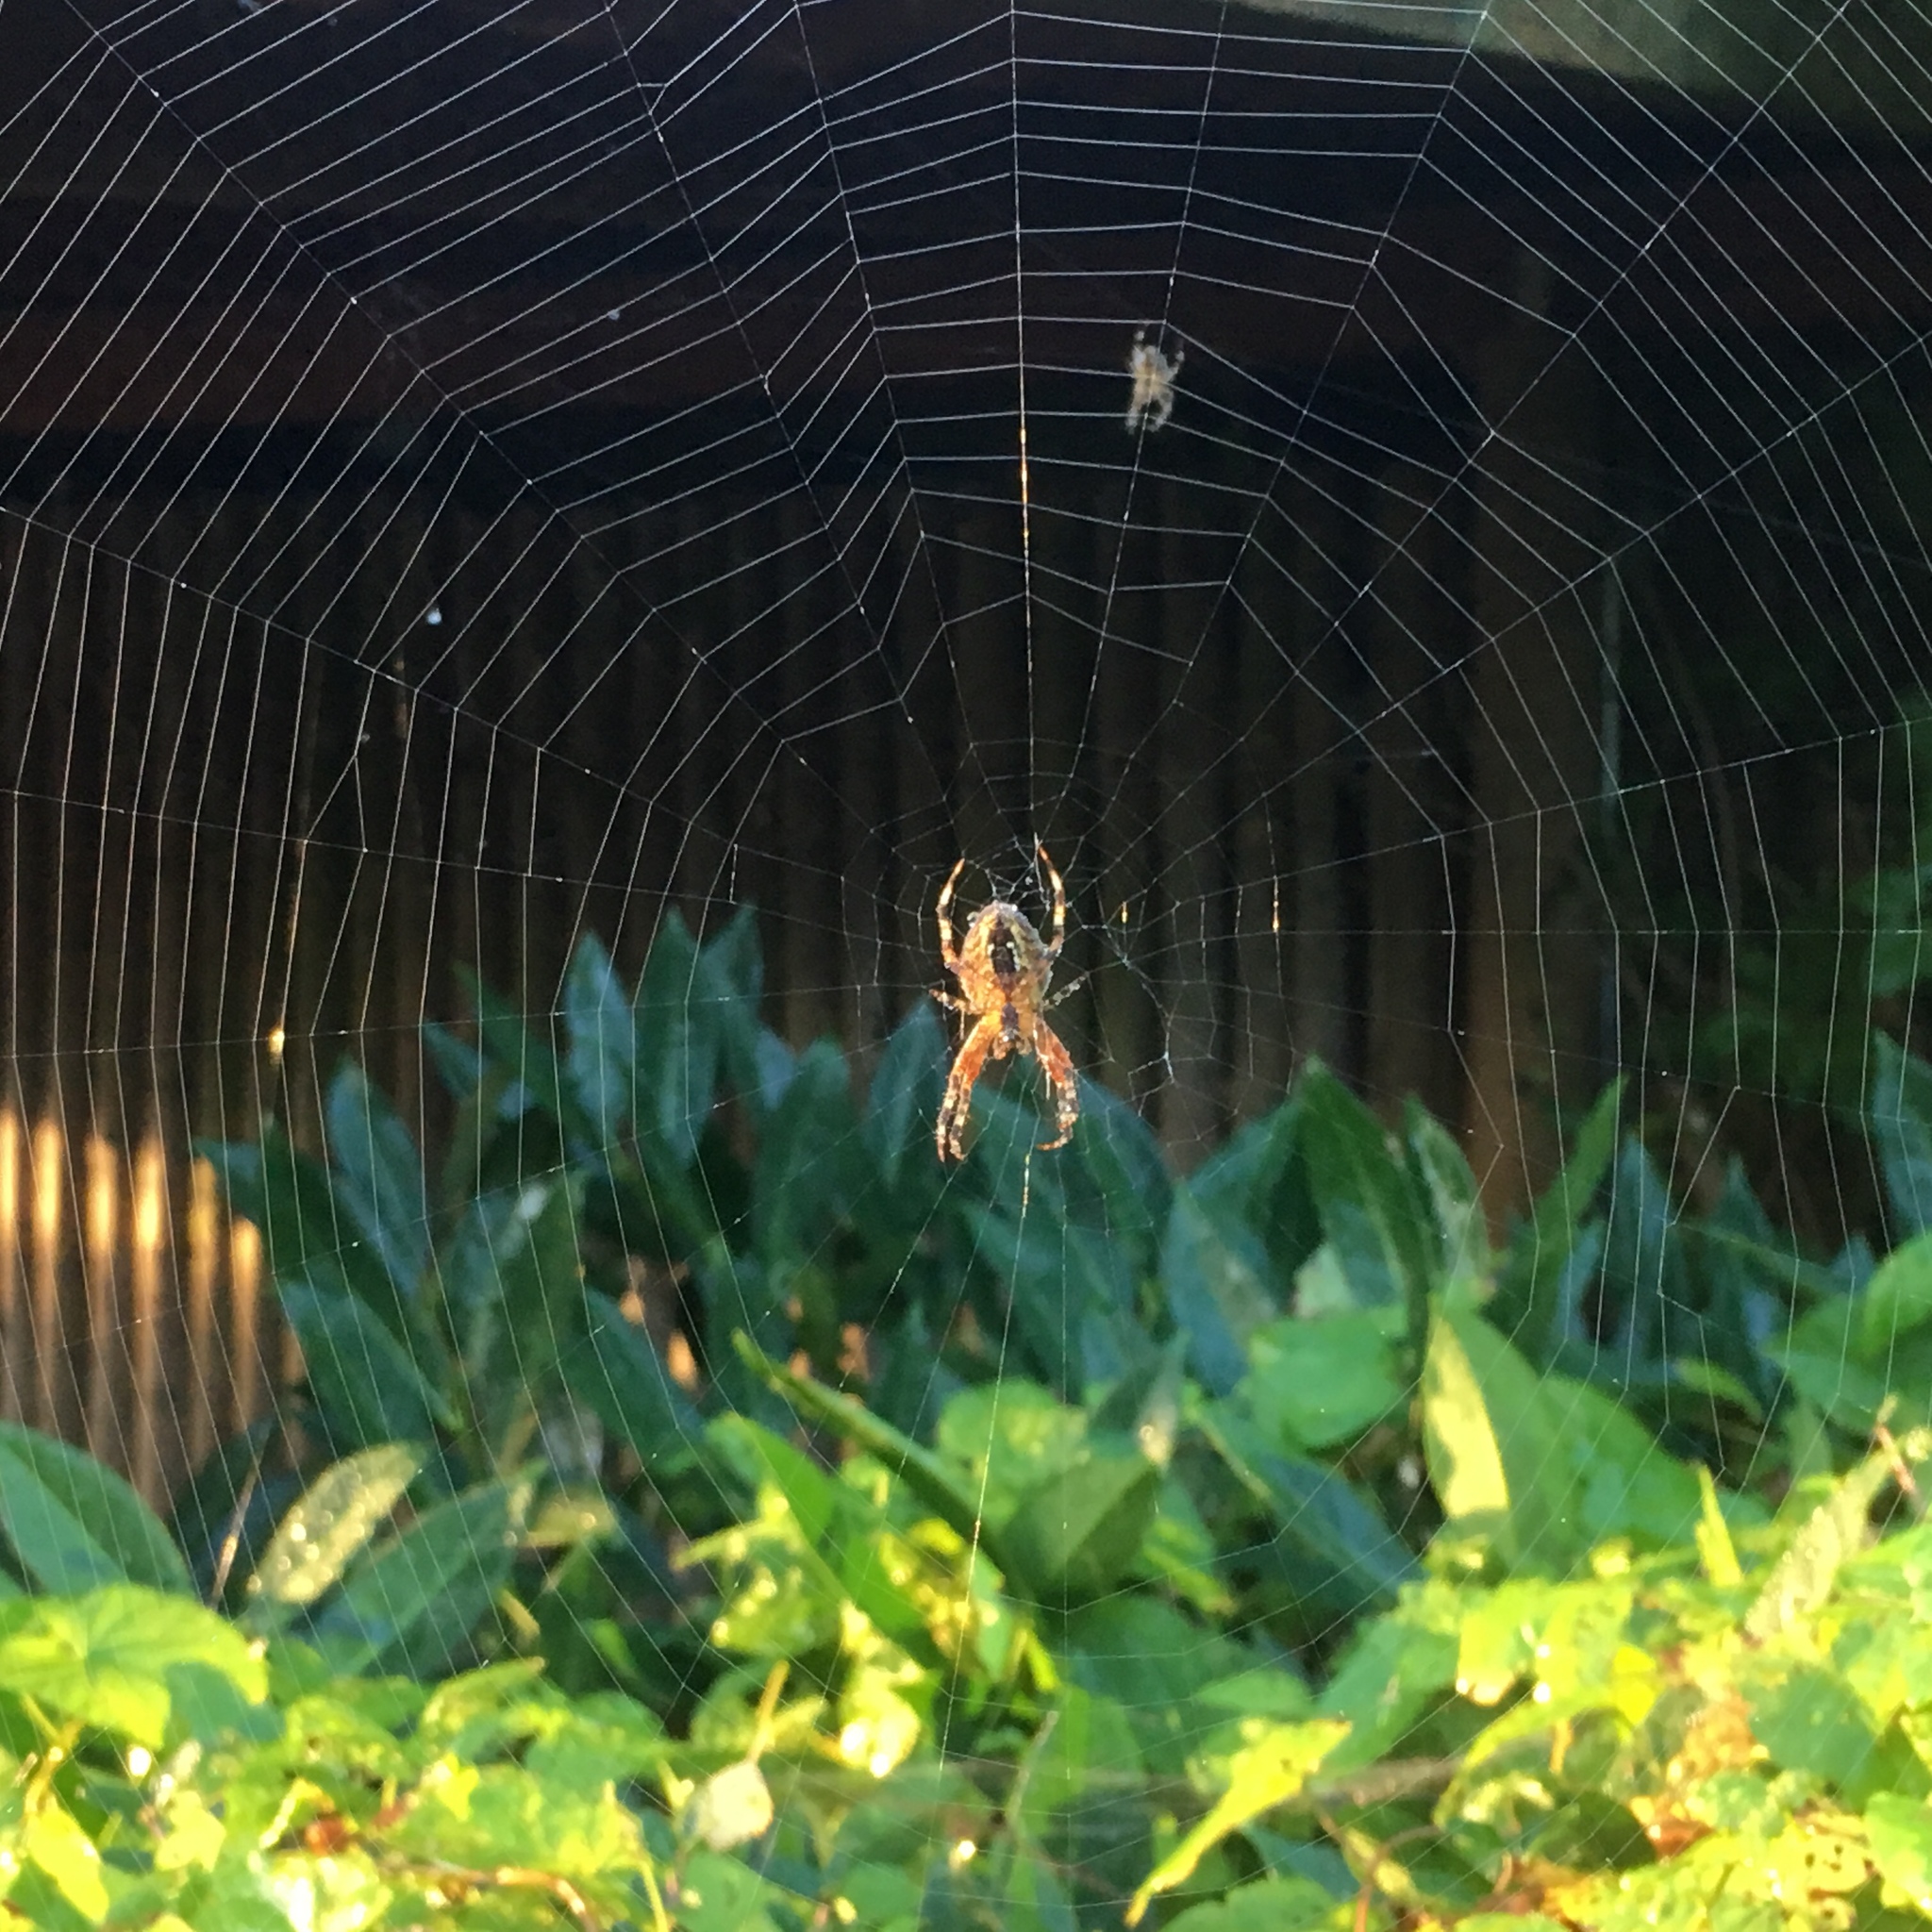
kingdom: Animalia
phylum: Arthropoda
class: Arachnida
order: Araneae
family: Araneidae
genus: Araneus
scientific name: Araneus diadematus
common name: Cross orbweaver
